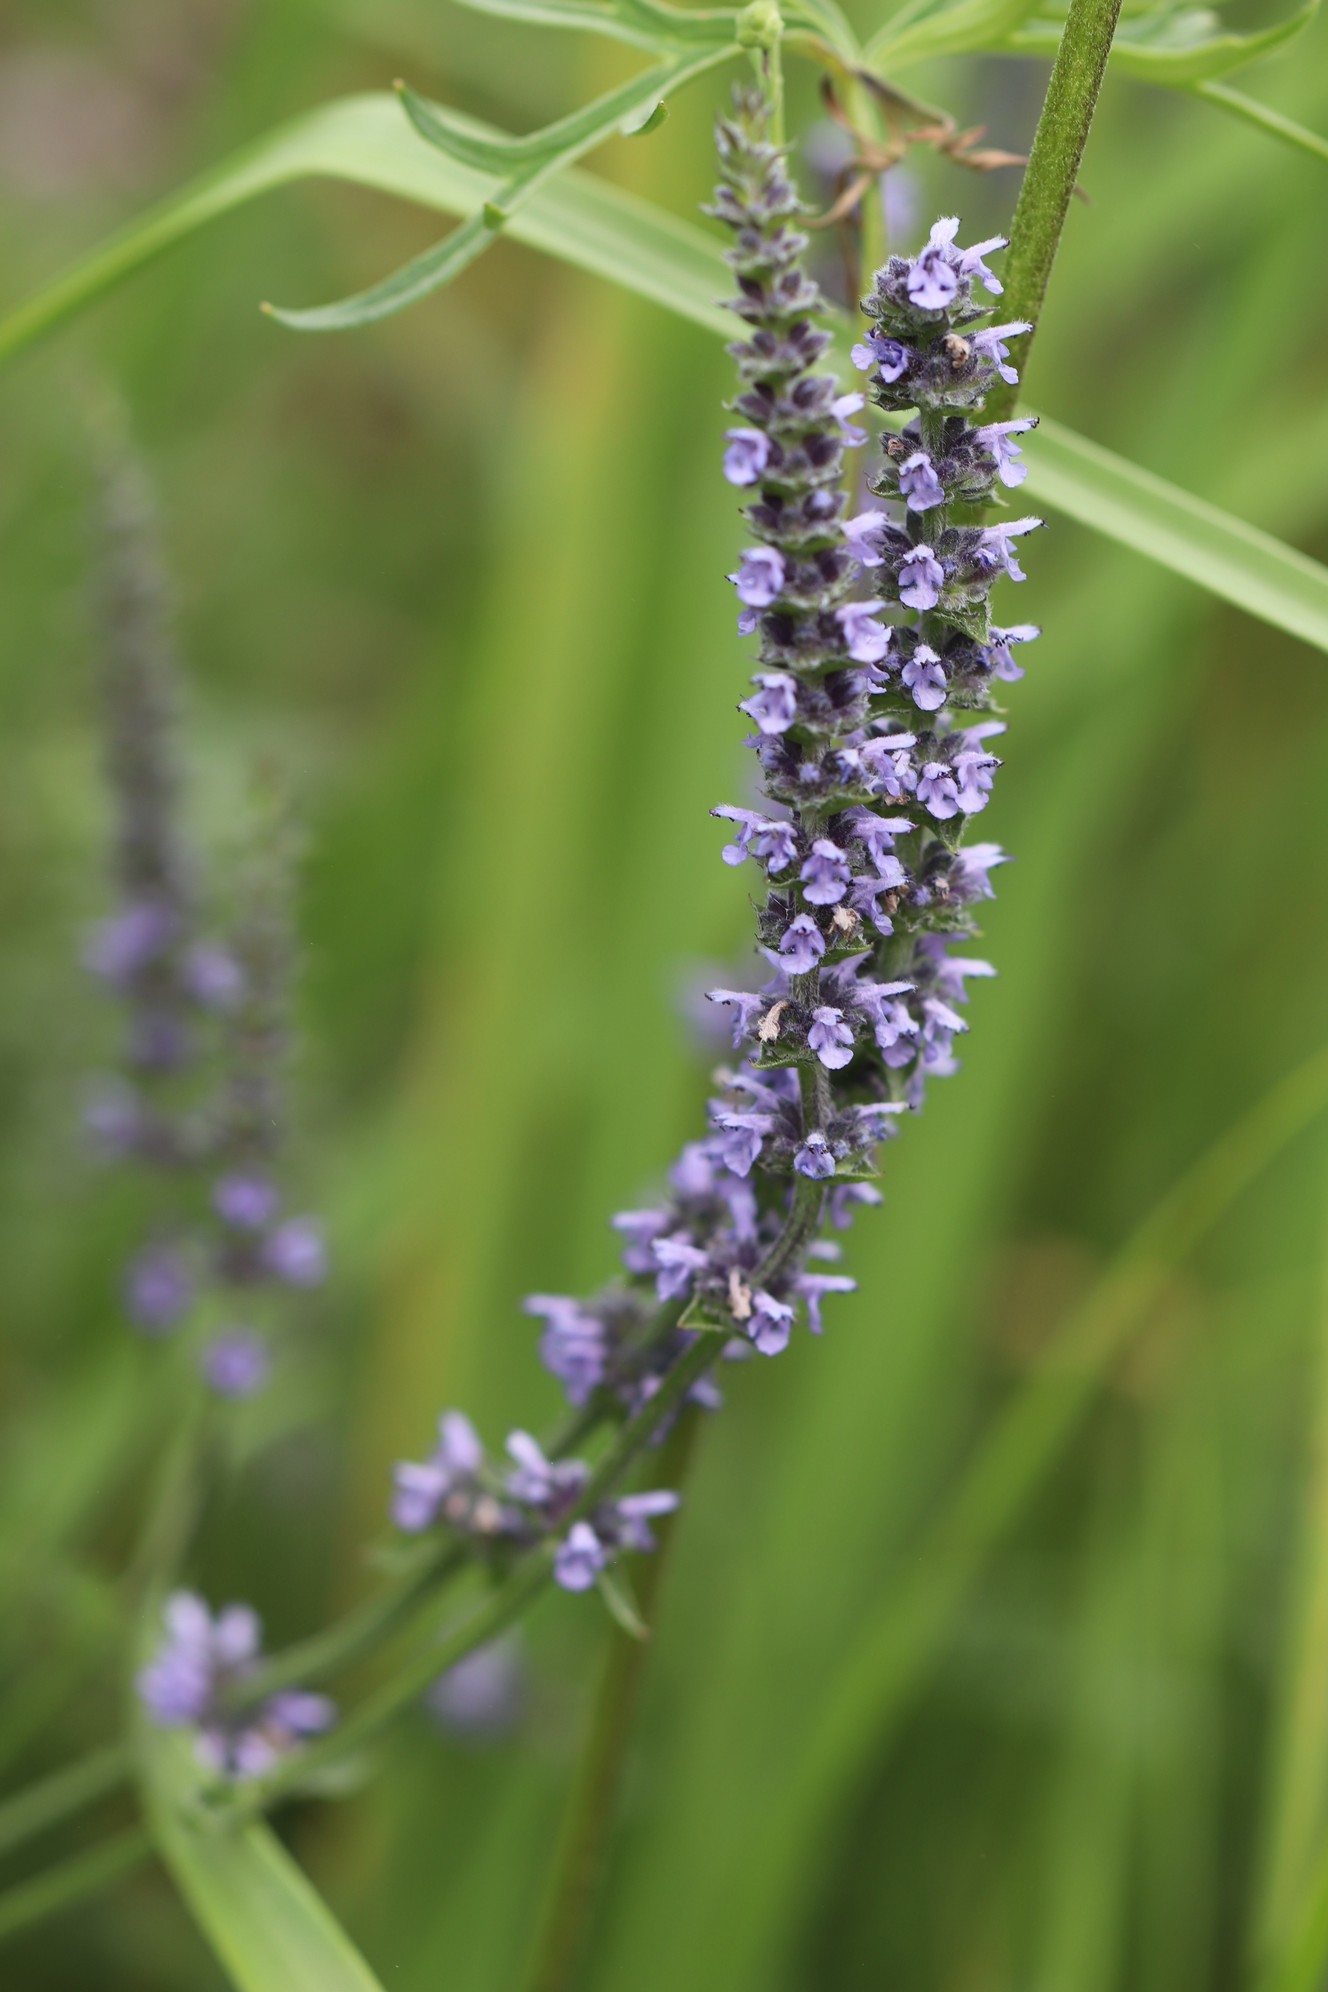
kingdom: Plantae
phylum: Tracheophyta
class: Magnoliopsida
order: Lamiales
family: Lamiaceae
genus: Nepeta
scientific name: Nepeta multifida
